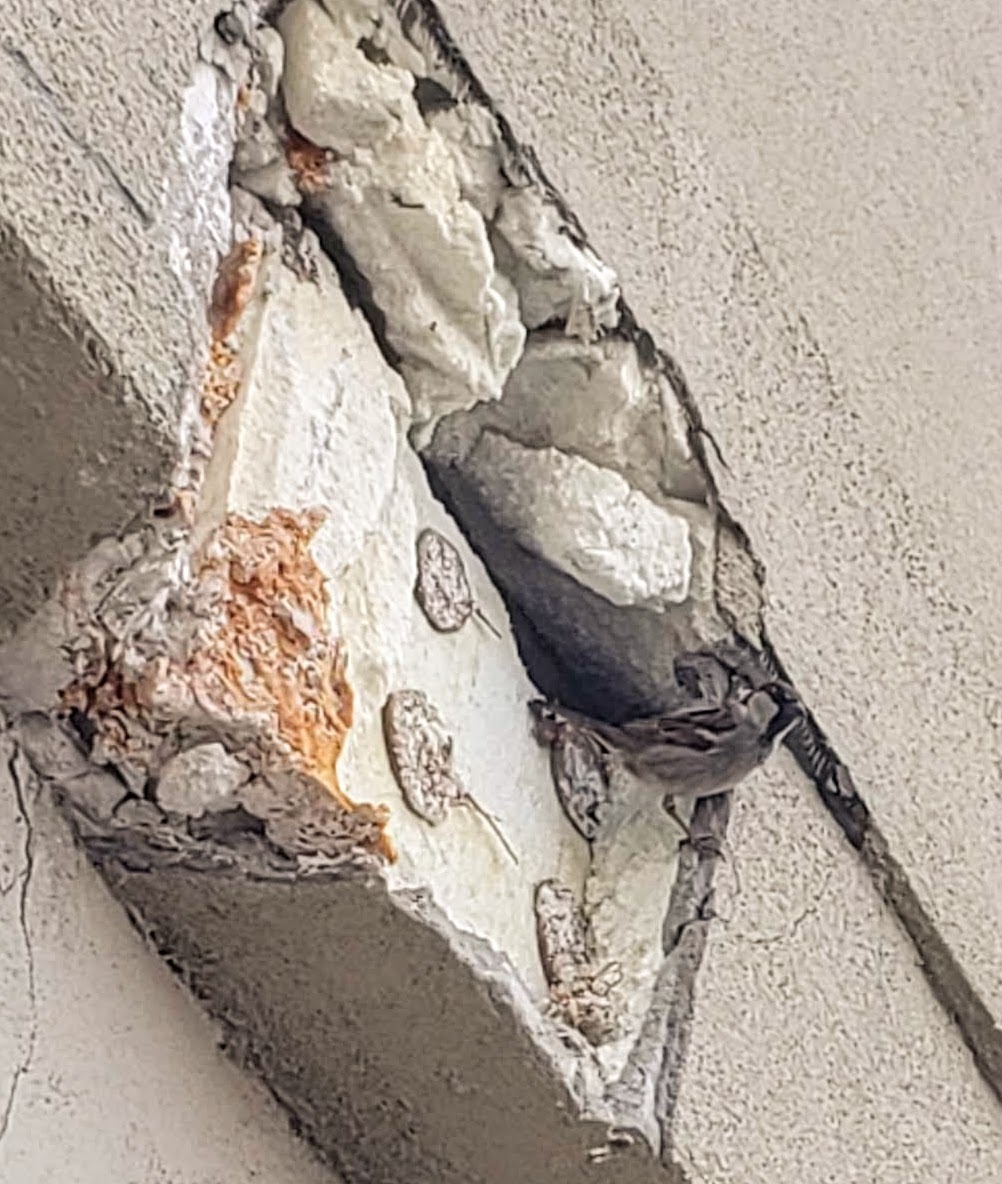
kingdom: Animalia
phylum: Chordata
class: Aves
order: Passeriformes
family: Passeridae
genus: Passer
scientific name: Passer domesticus
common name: House sparrow
